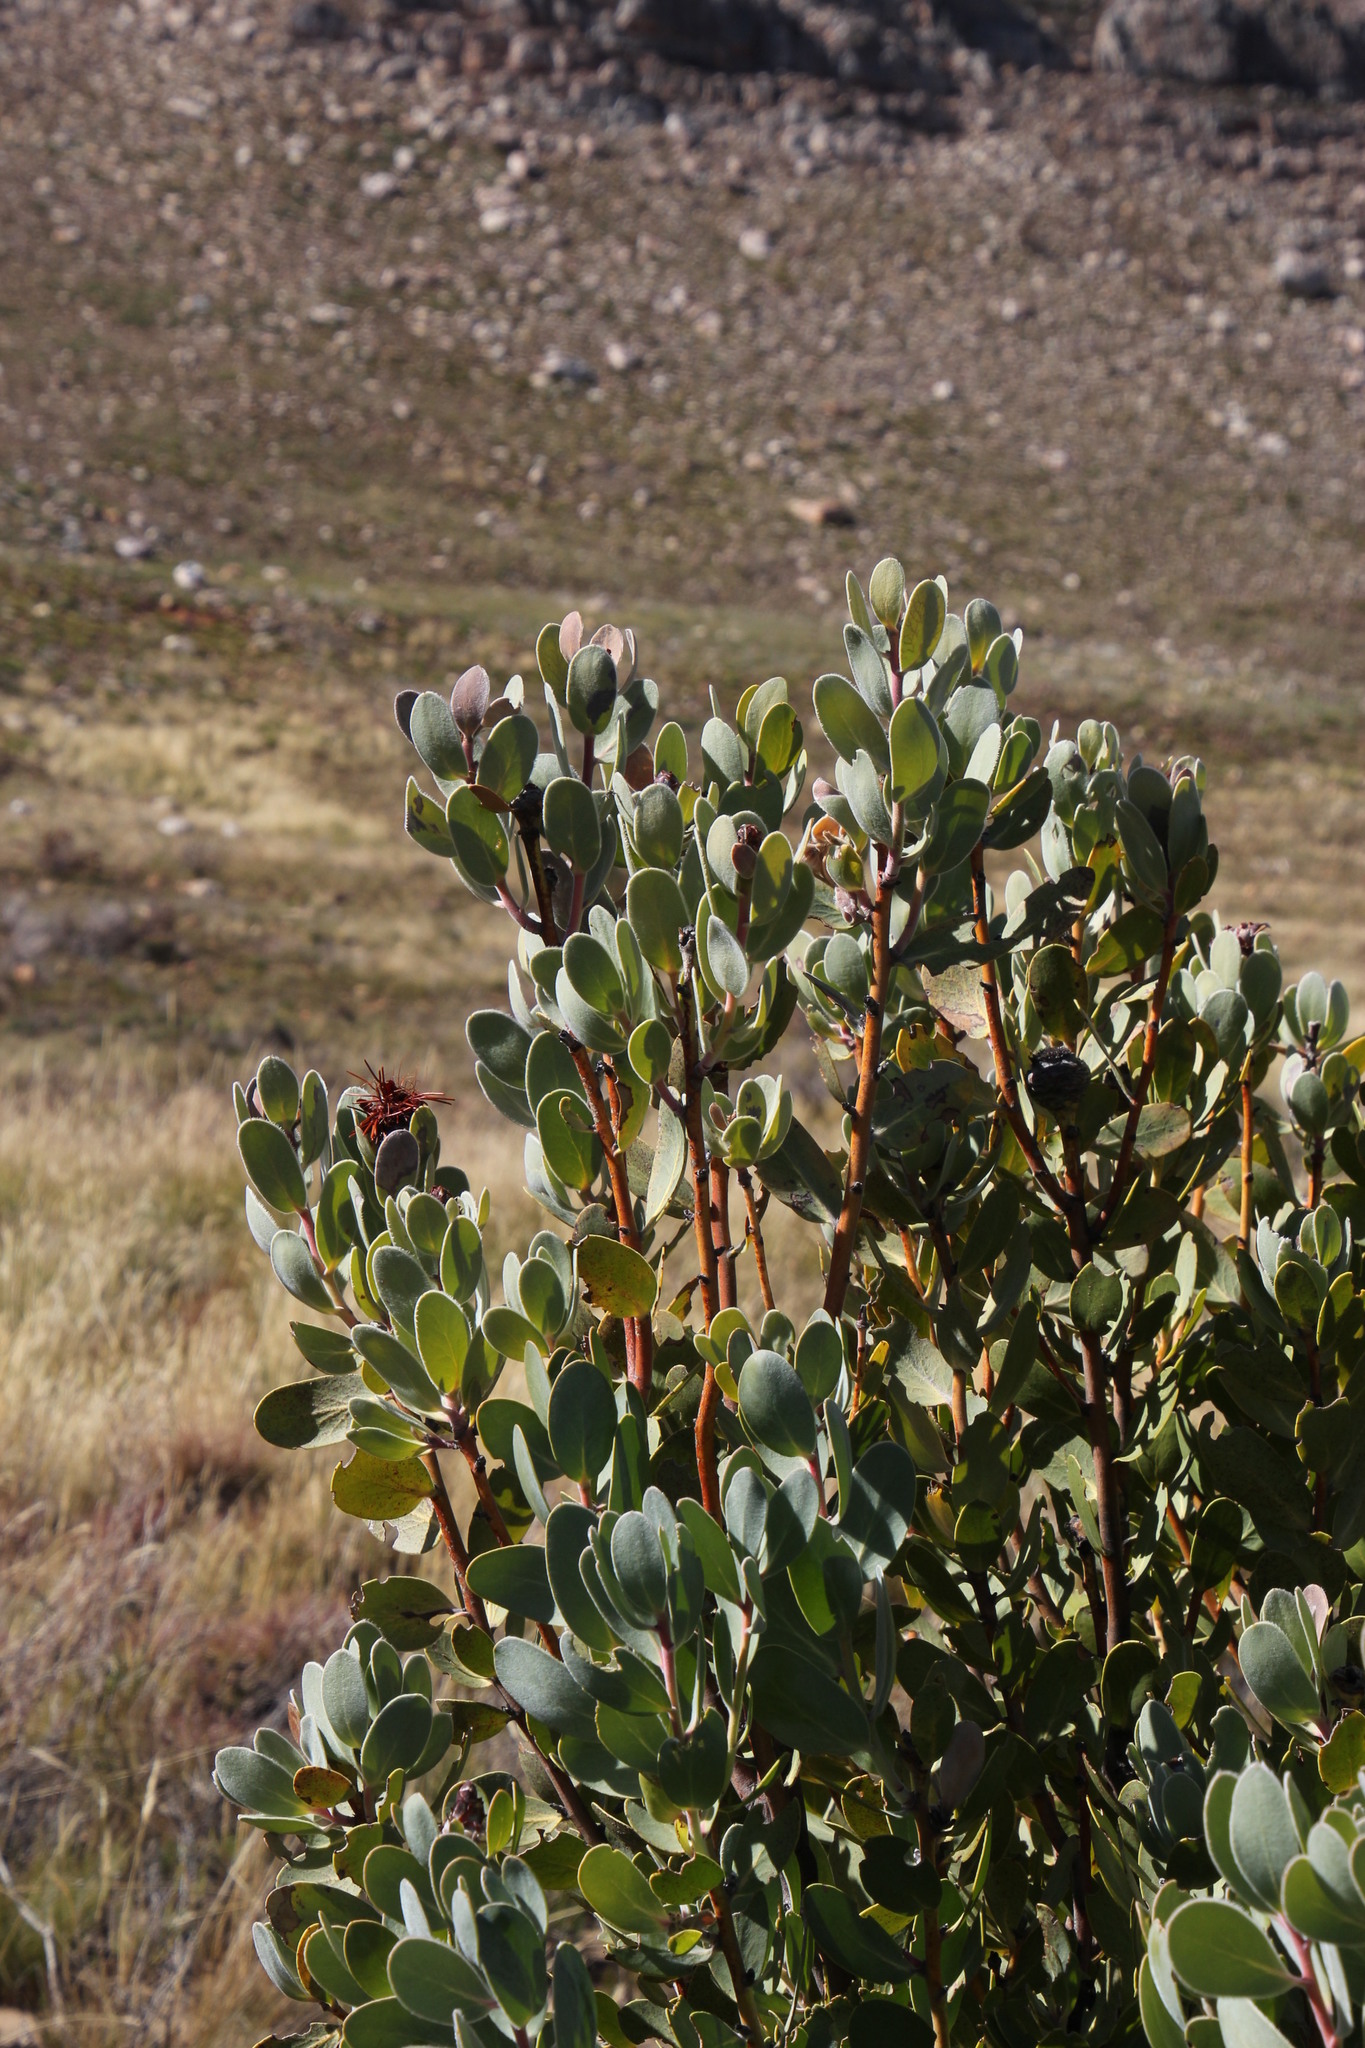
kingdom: Plantae
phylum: Tracheophyta
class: Magnoliopsida
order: Proteales
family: Proteaceae
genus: Protea
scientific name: Protea punctata
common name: Water sugarbush
